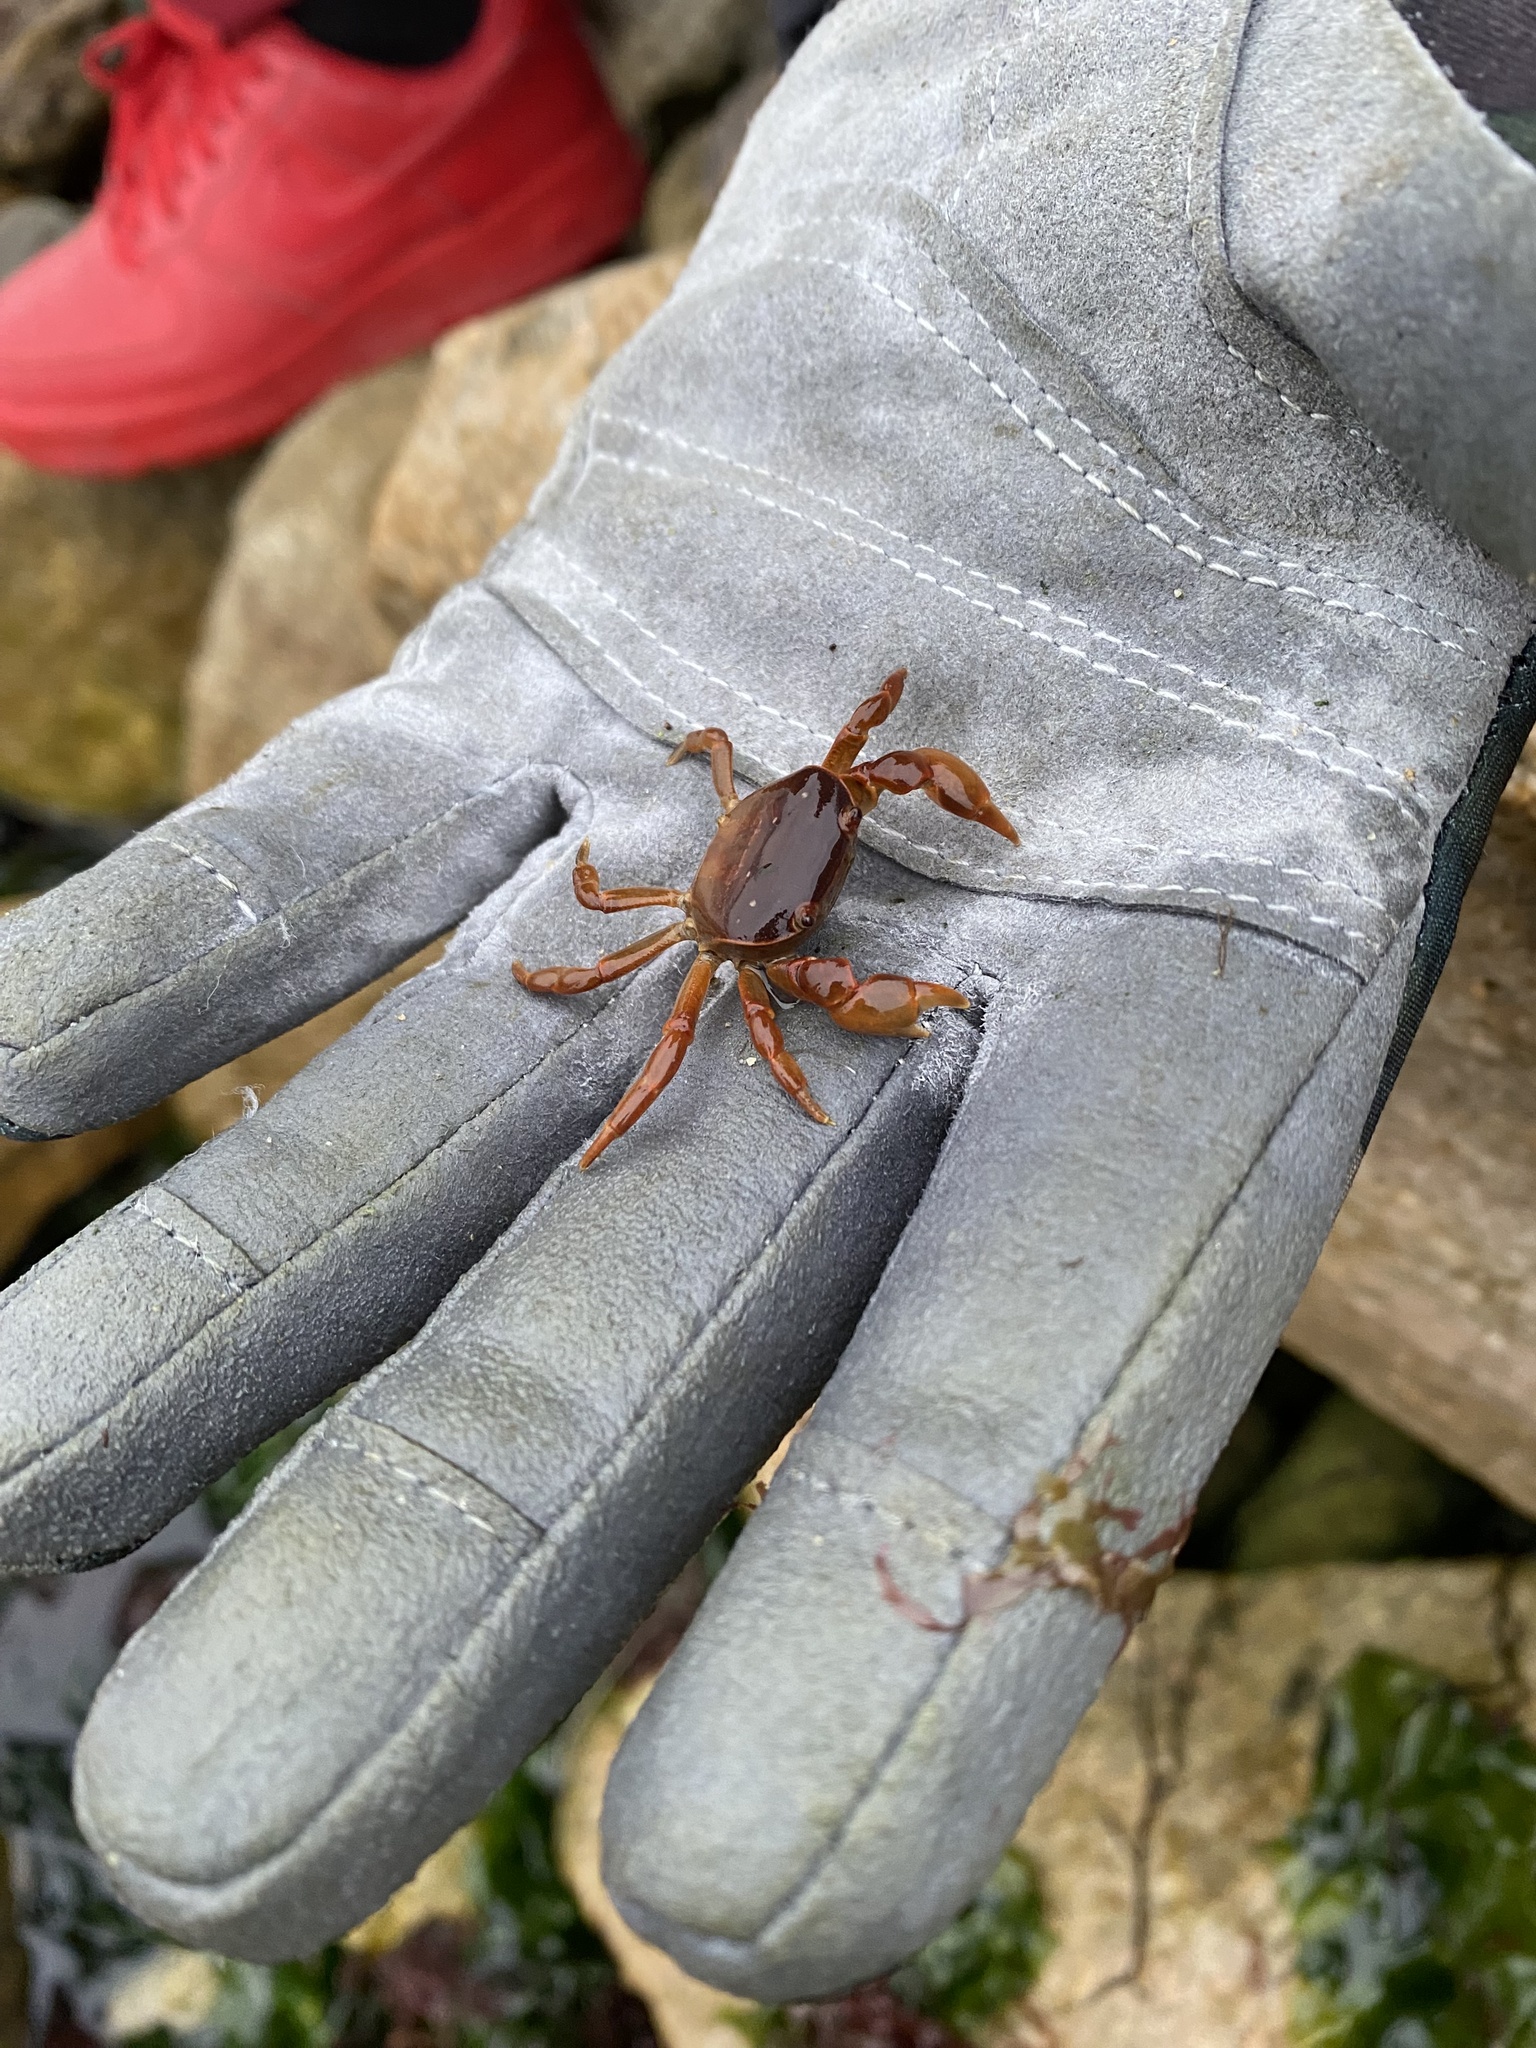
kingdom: Animalia
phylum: Arthropoda
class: Malacostraca
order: Decapoda
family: Varunidae
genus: Cyclograpsus
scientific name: Cyclograpsus cinereus
